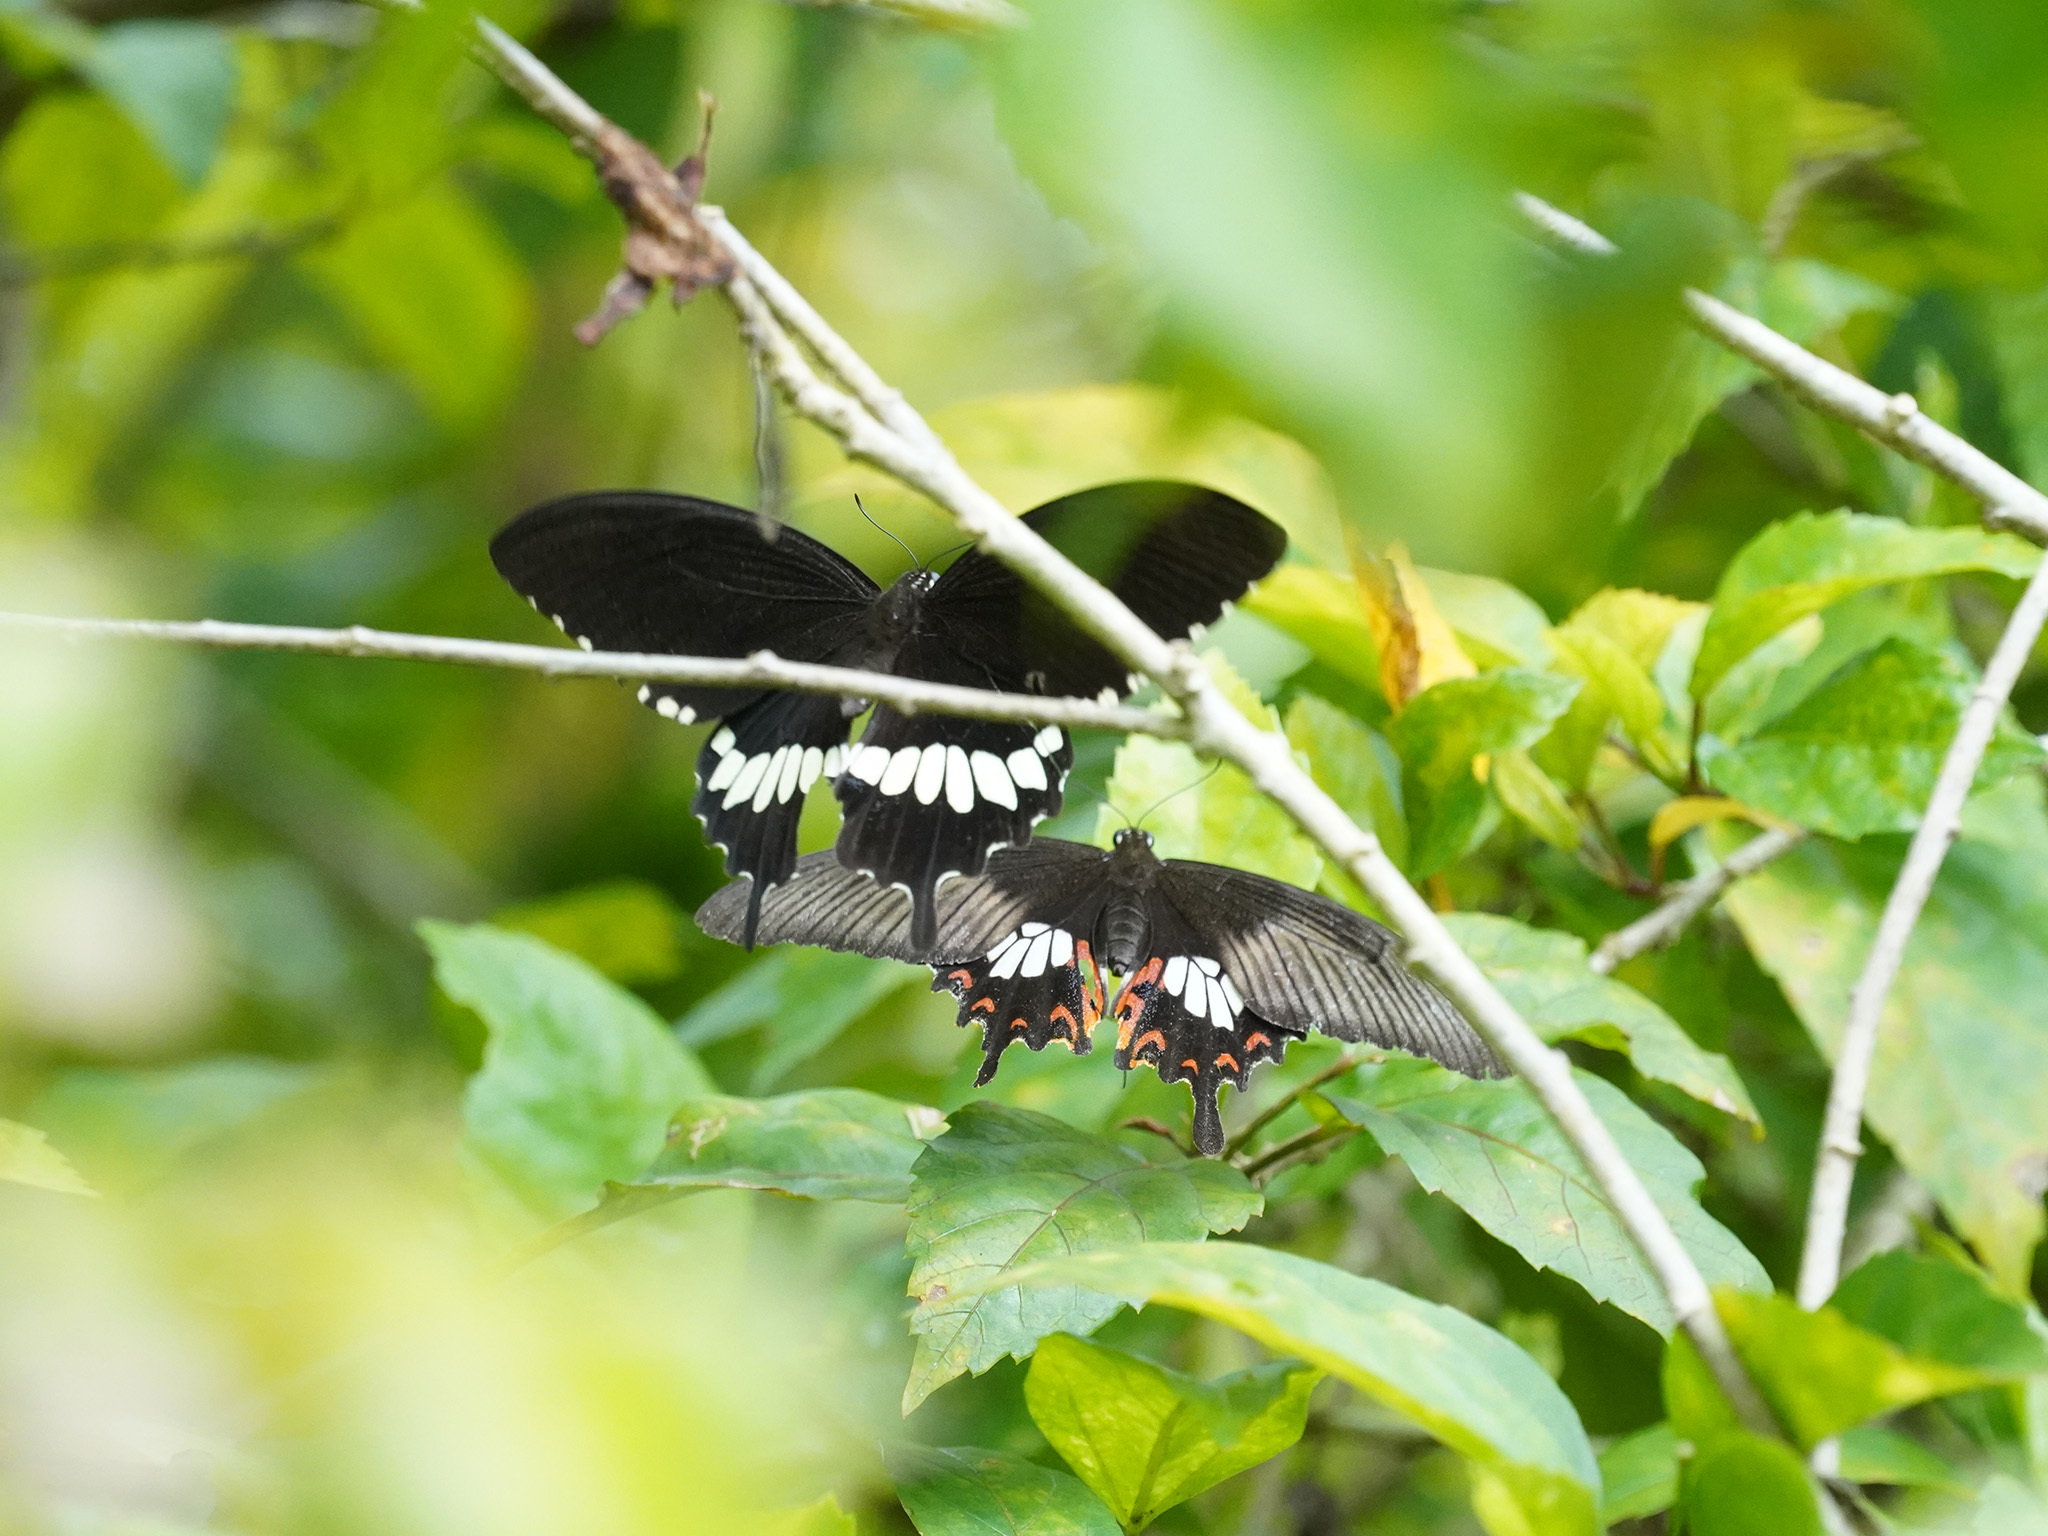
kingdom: Animalia
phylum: Arthropoda
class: Insecta
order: Lepidoptera
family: Papilionidae
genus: Papilio
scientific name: Papilio polytes
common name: Common mormon
